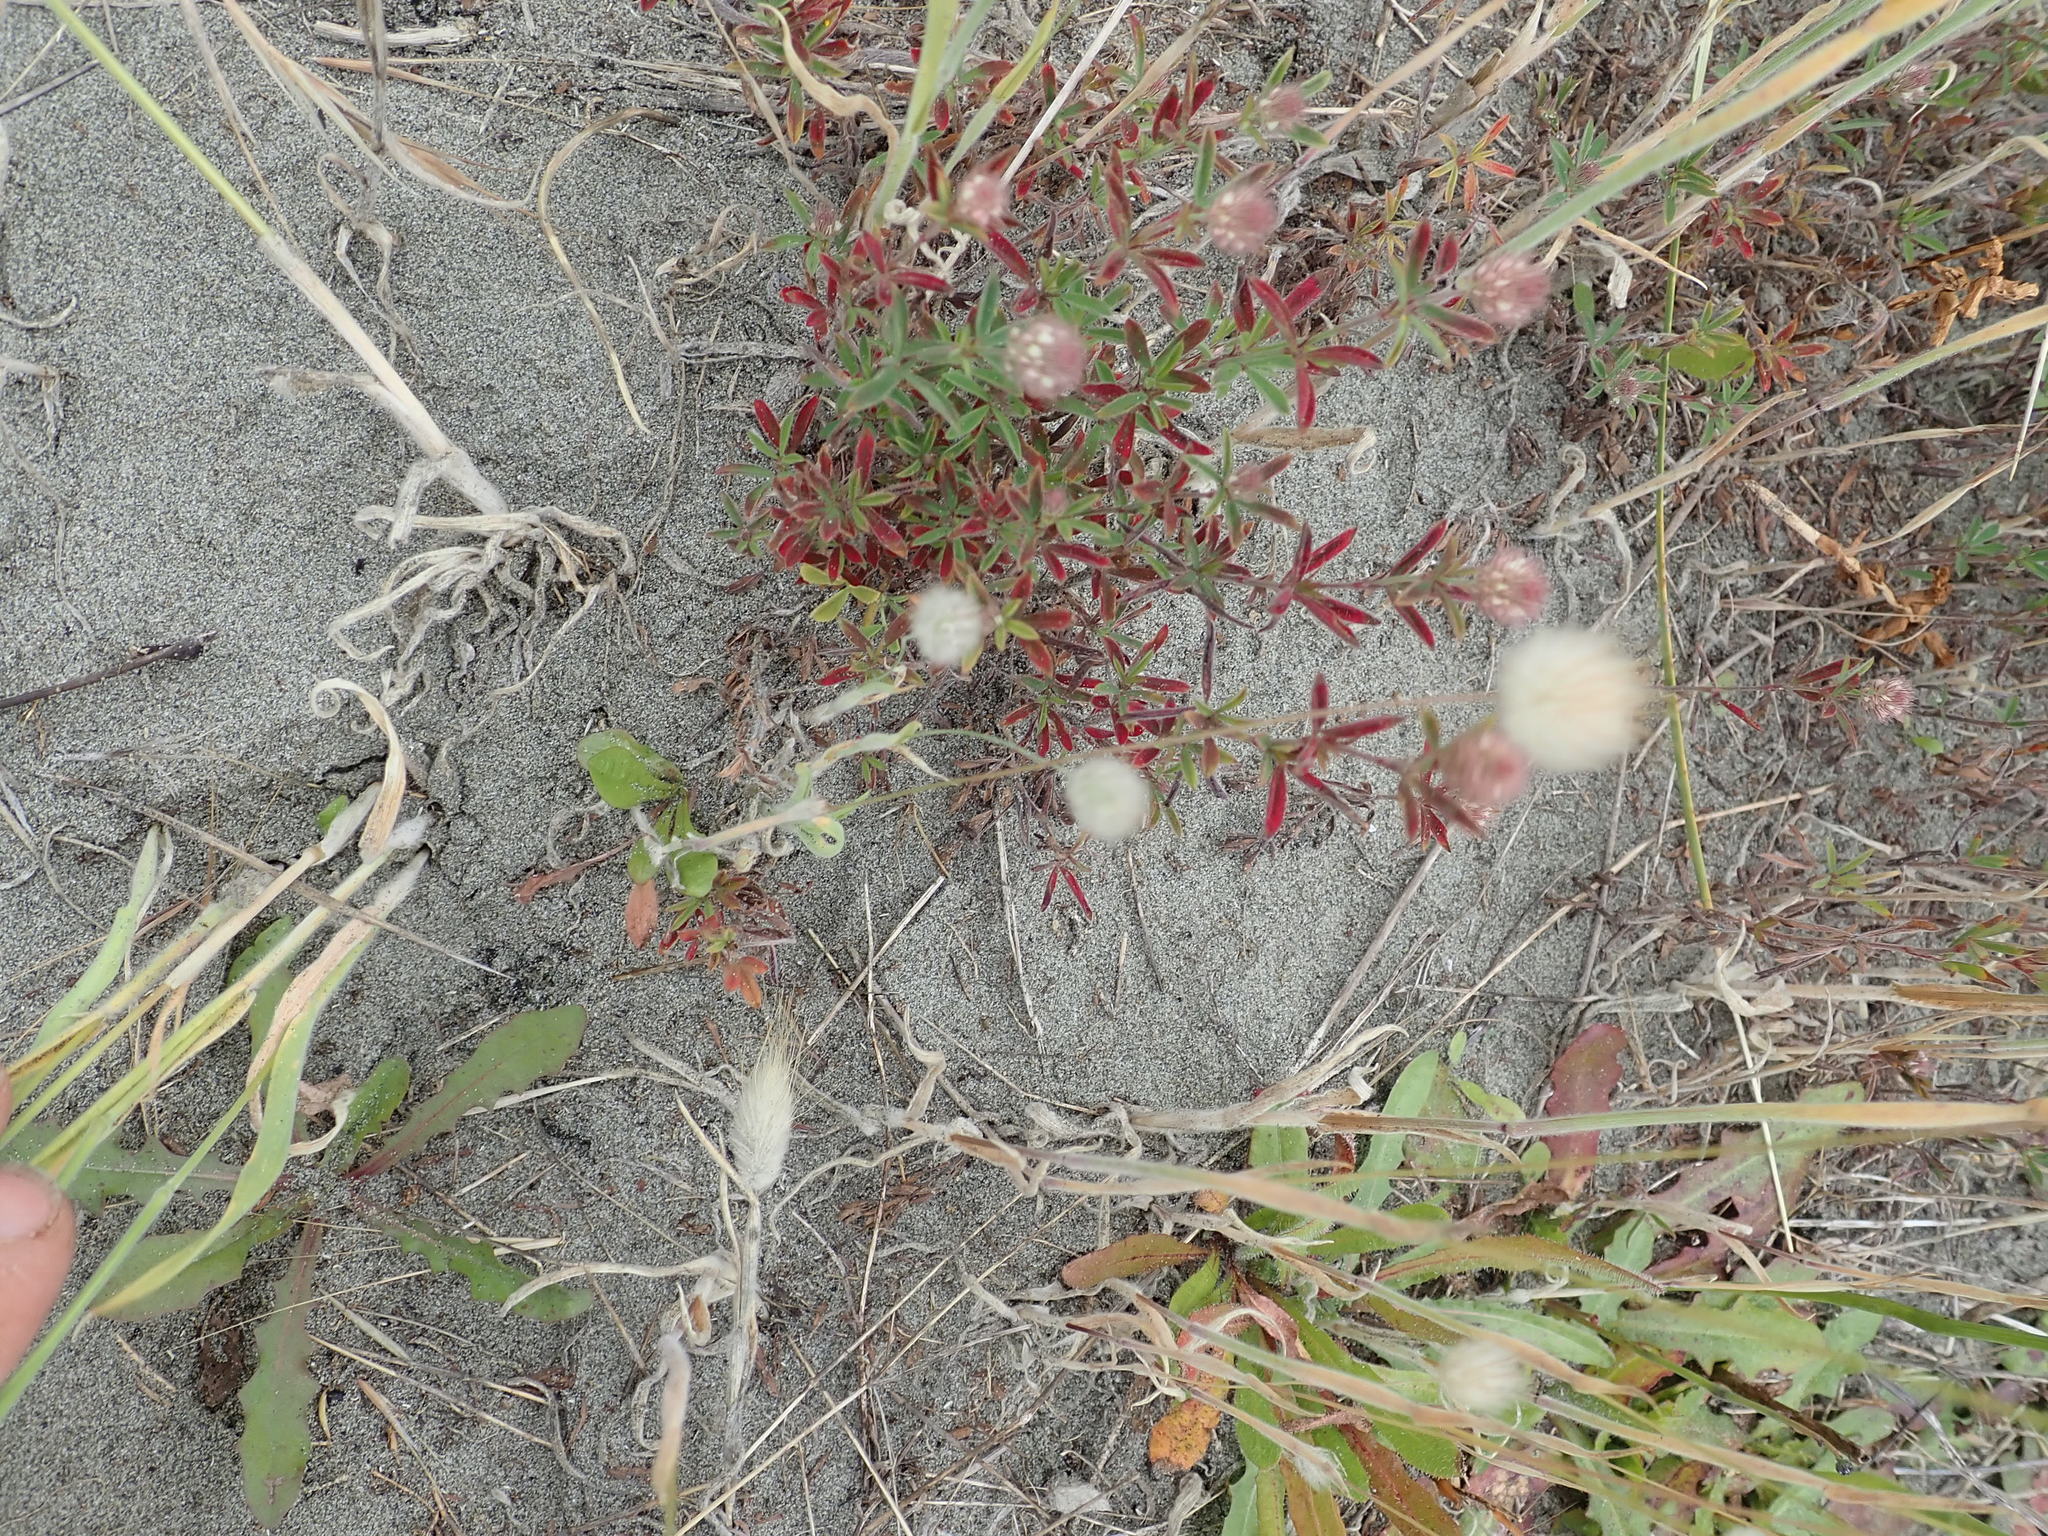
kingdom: Plantae
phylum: Tracheophyta
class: Magnoliopsida
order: Fabales
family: Fabaceae
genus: Trifolium
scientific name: Trifolium arvense
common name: Hare's-foot clover
